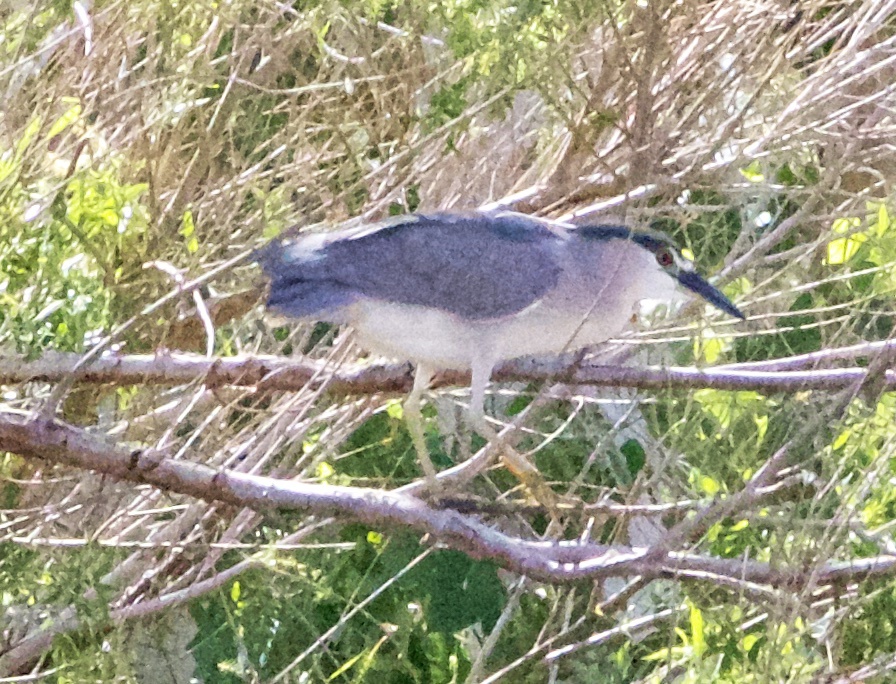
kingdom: Animalia
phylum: Chordata
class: Aves
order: Pelecaniformes
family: Ardeidae
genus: Nycticorax
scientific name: Nycticorax nycticorax
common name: Black-crowned night heron
